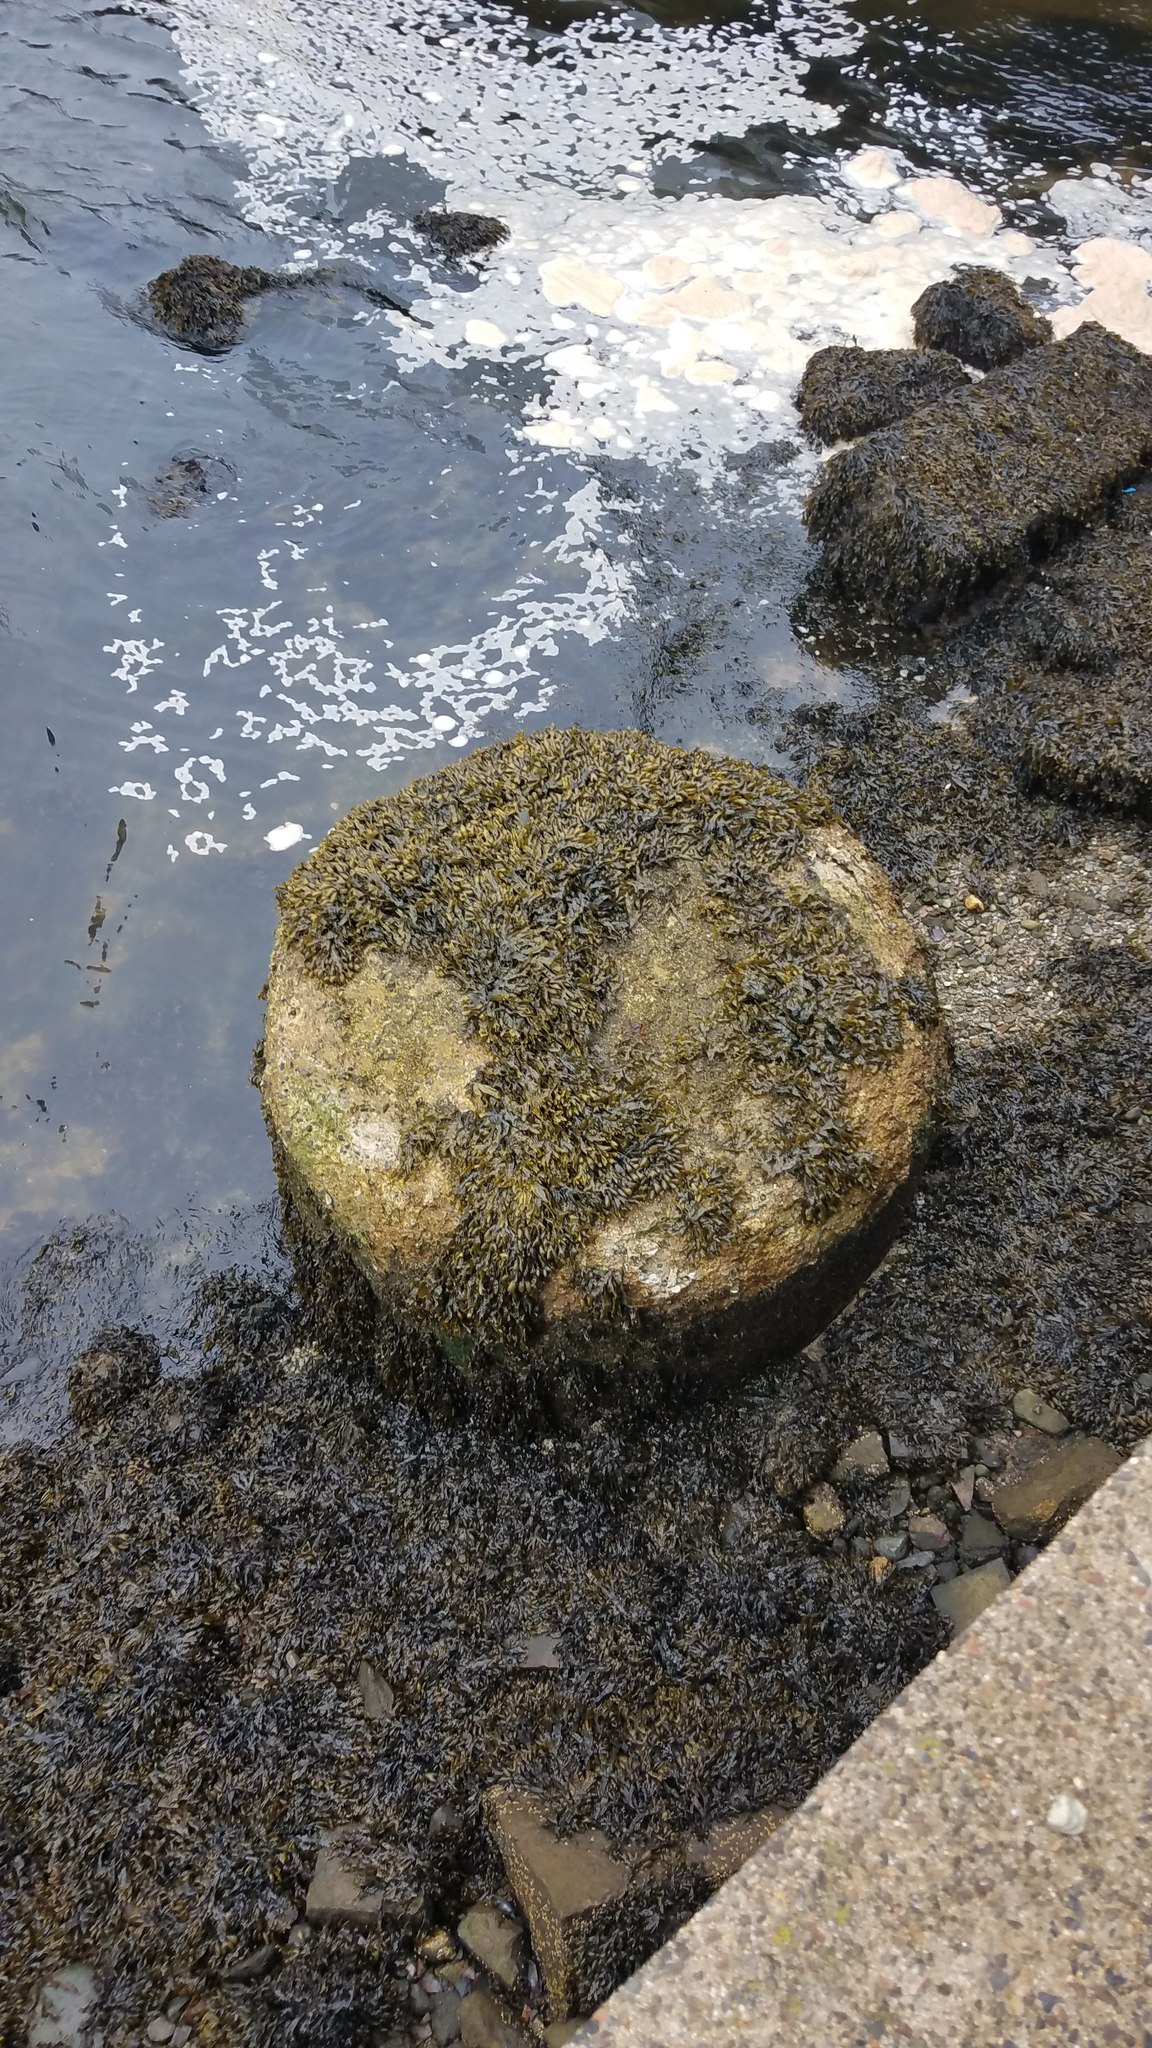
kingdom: Chromista
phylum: Ochrophyta
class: Phaeophyceae
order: Fucales
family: Fucaceae
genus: Fucus
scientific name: Fucus distichus
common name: Rockweed
